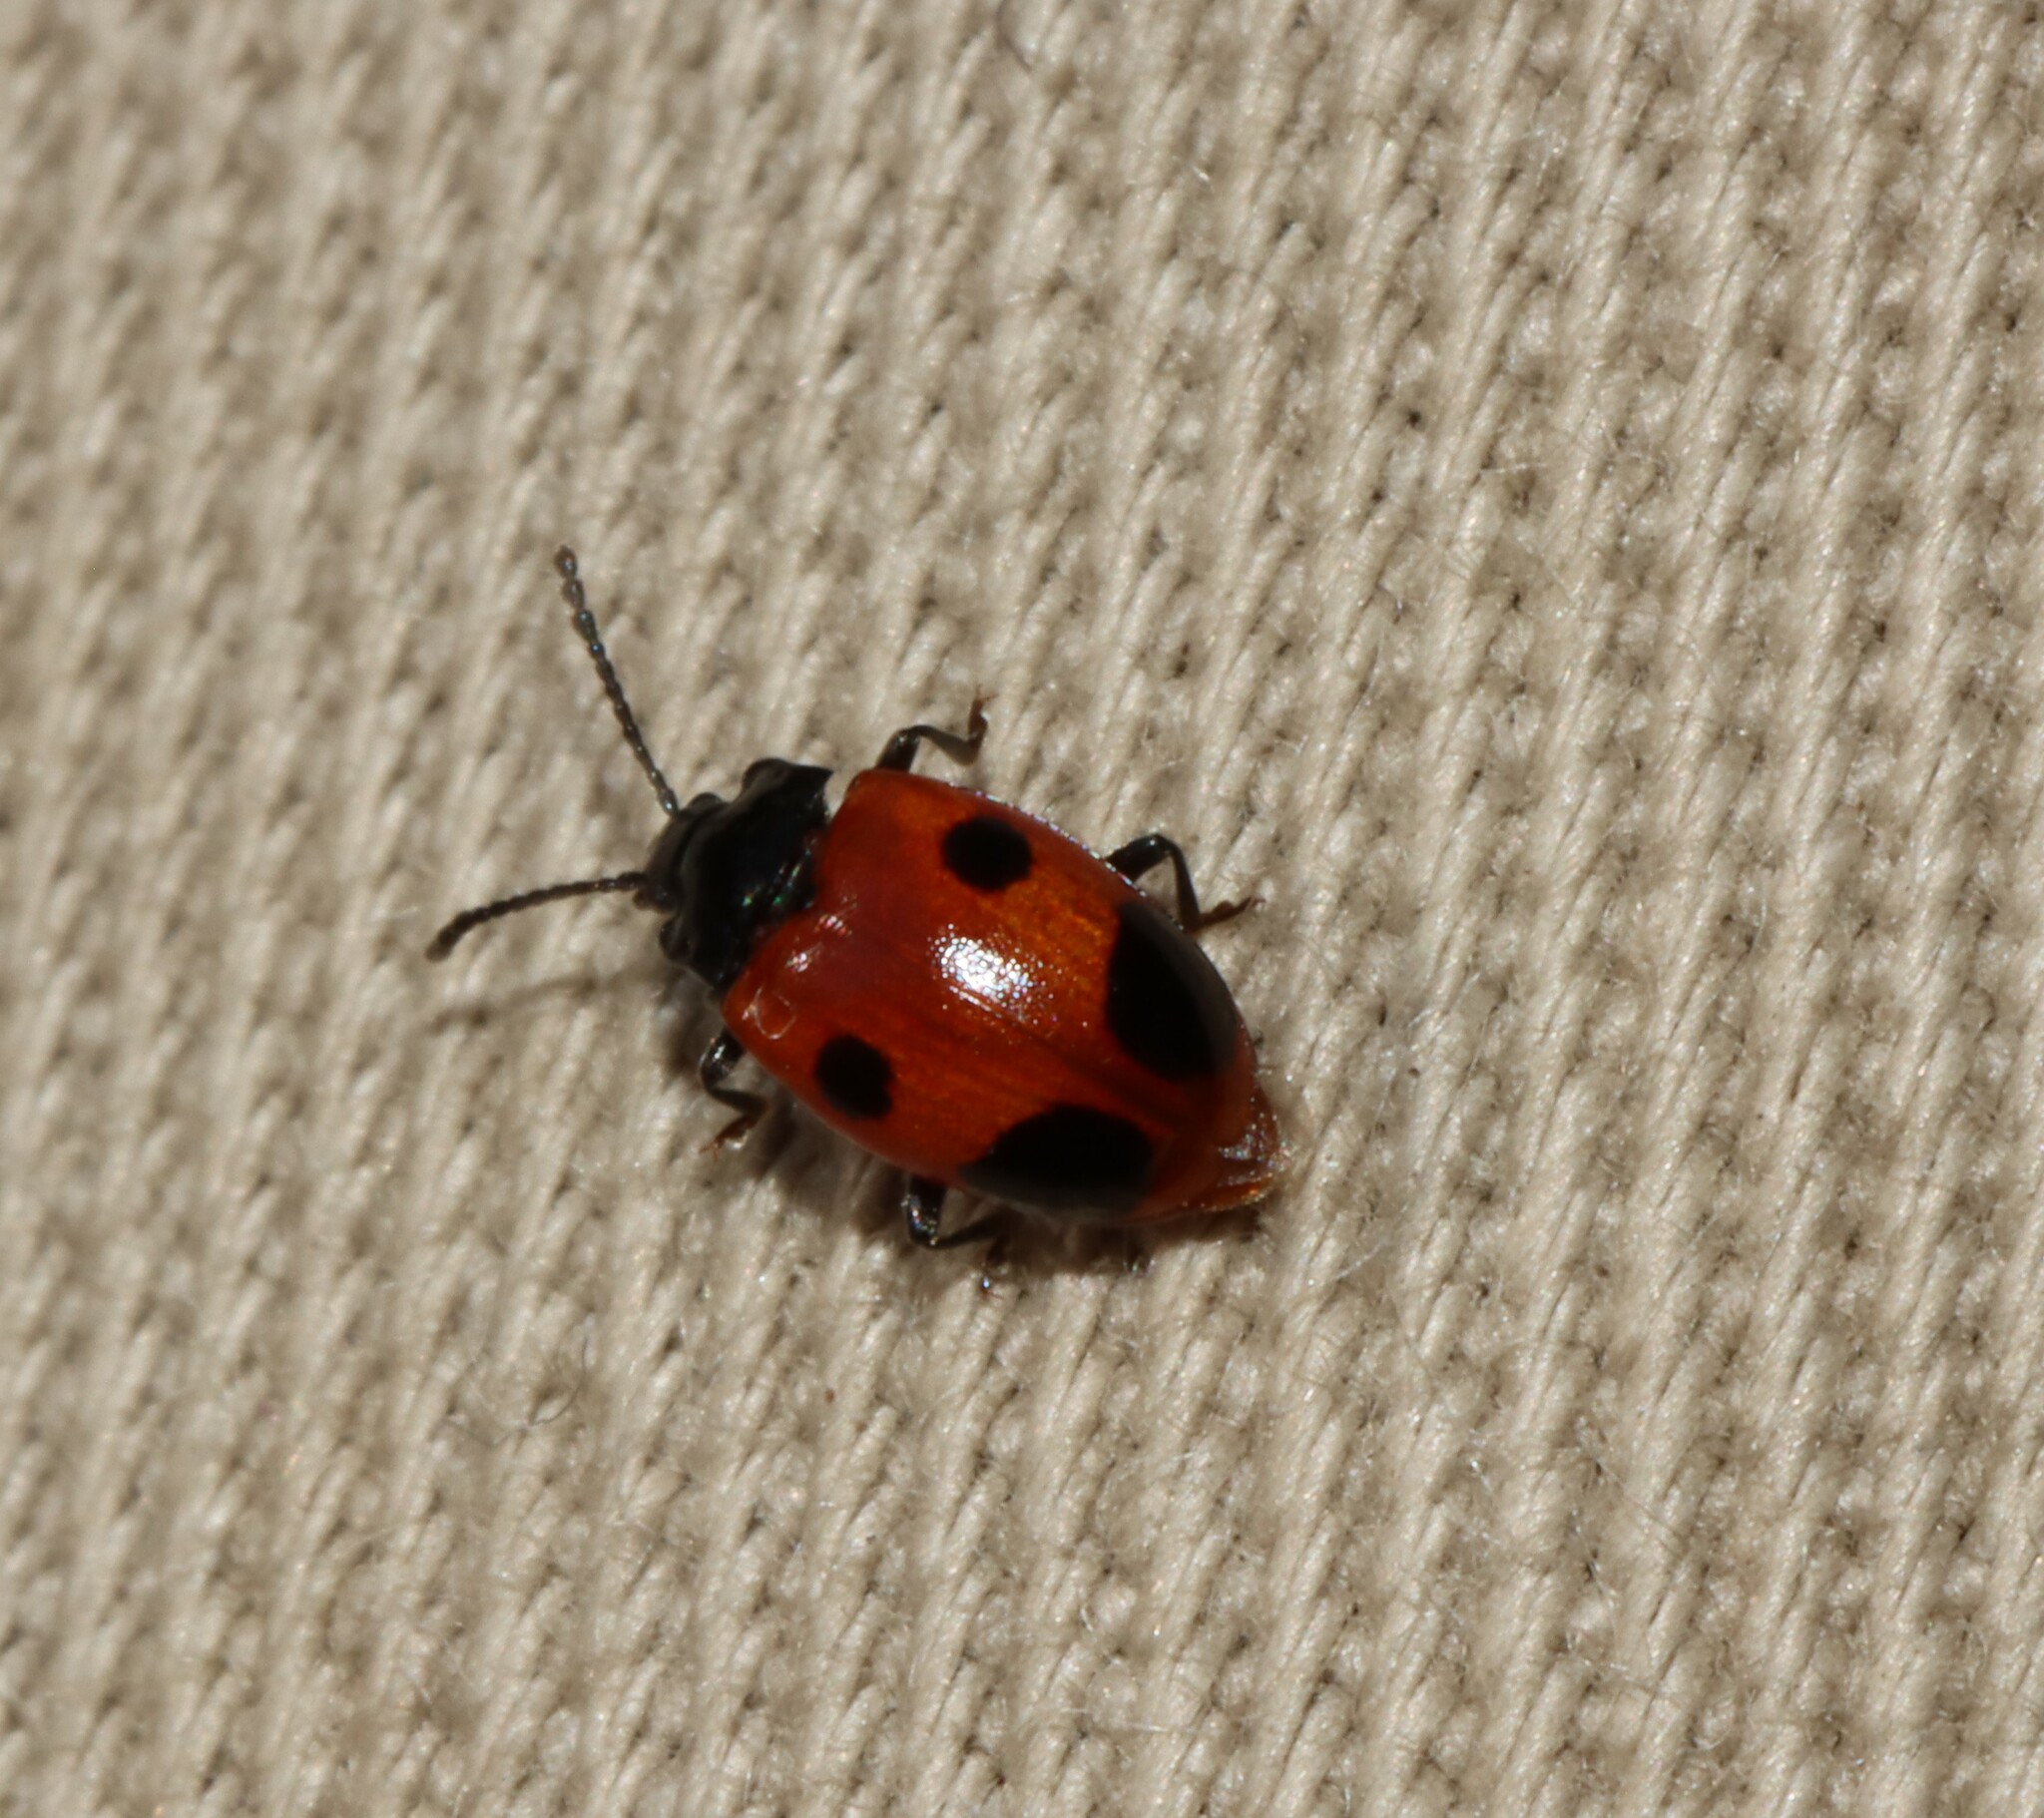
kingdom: Animalia
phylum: Arthropoda
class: Insecta
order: Coleoptera
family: Endomychidae
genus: Endomychus
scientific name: Endomychus biguttatus
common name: Handsome fungus beetle
